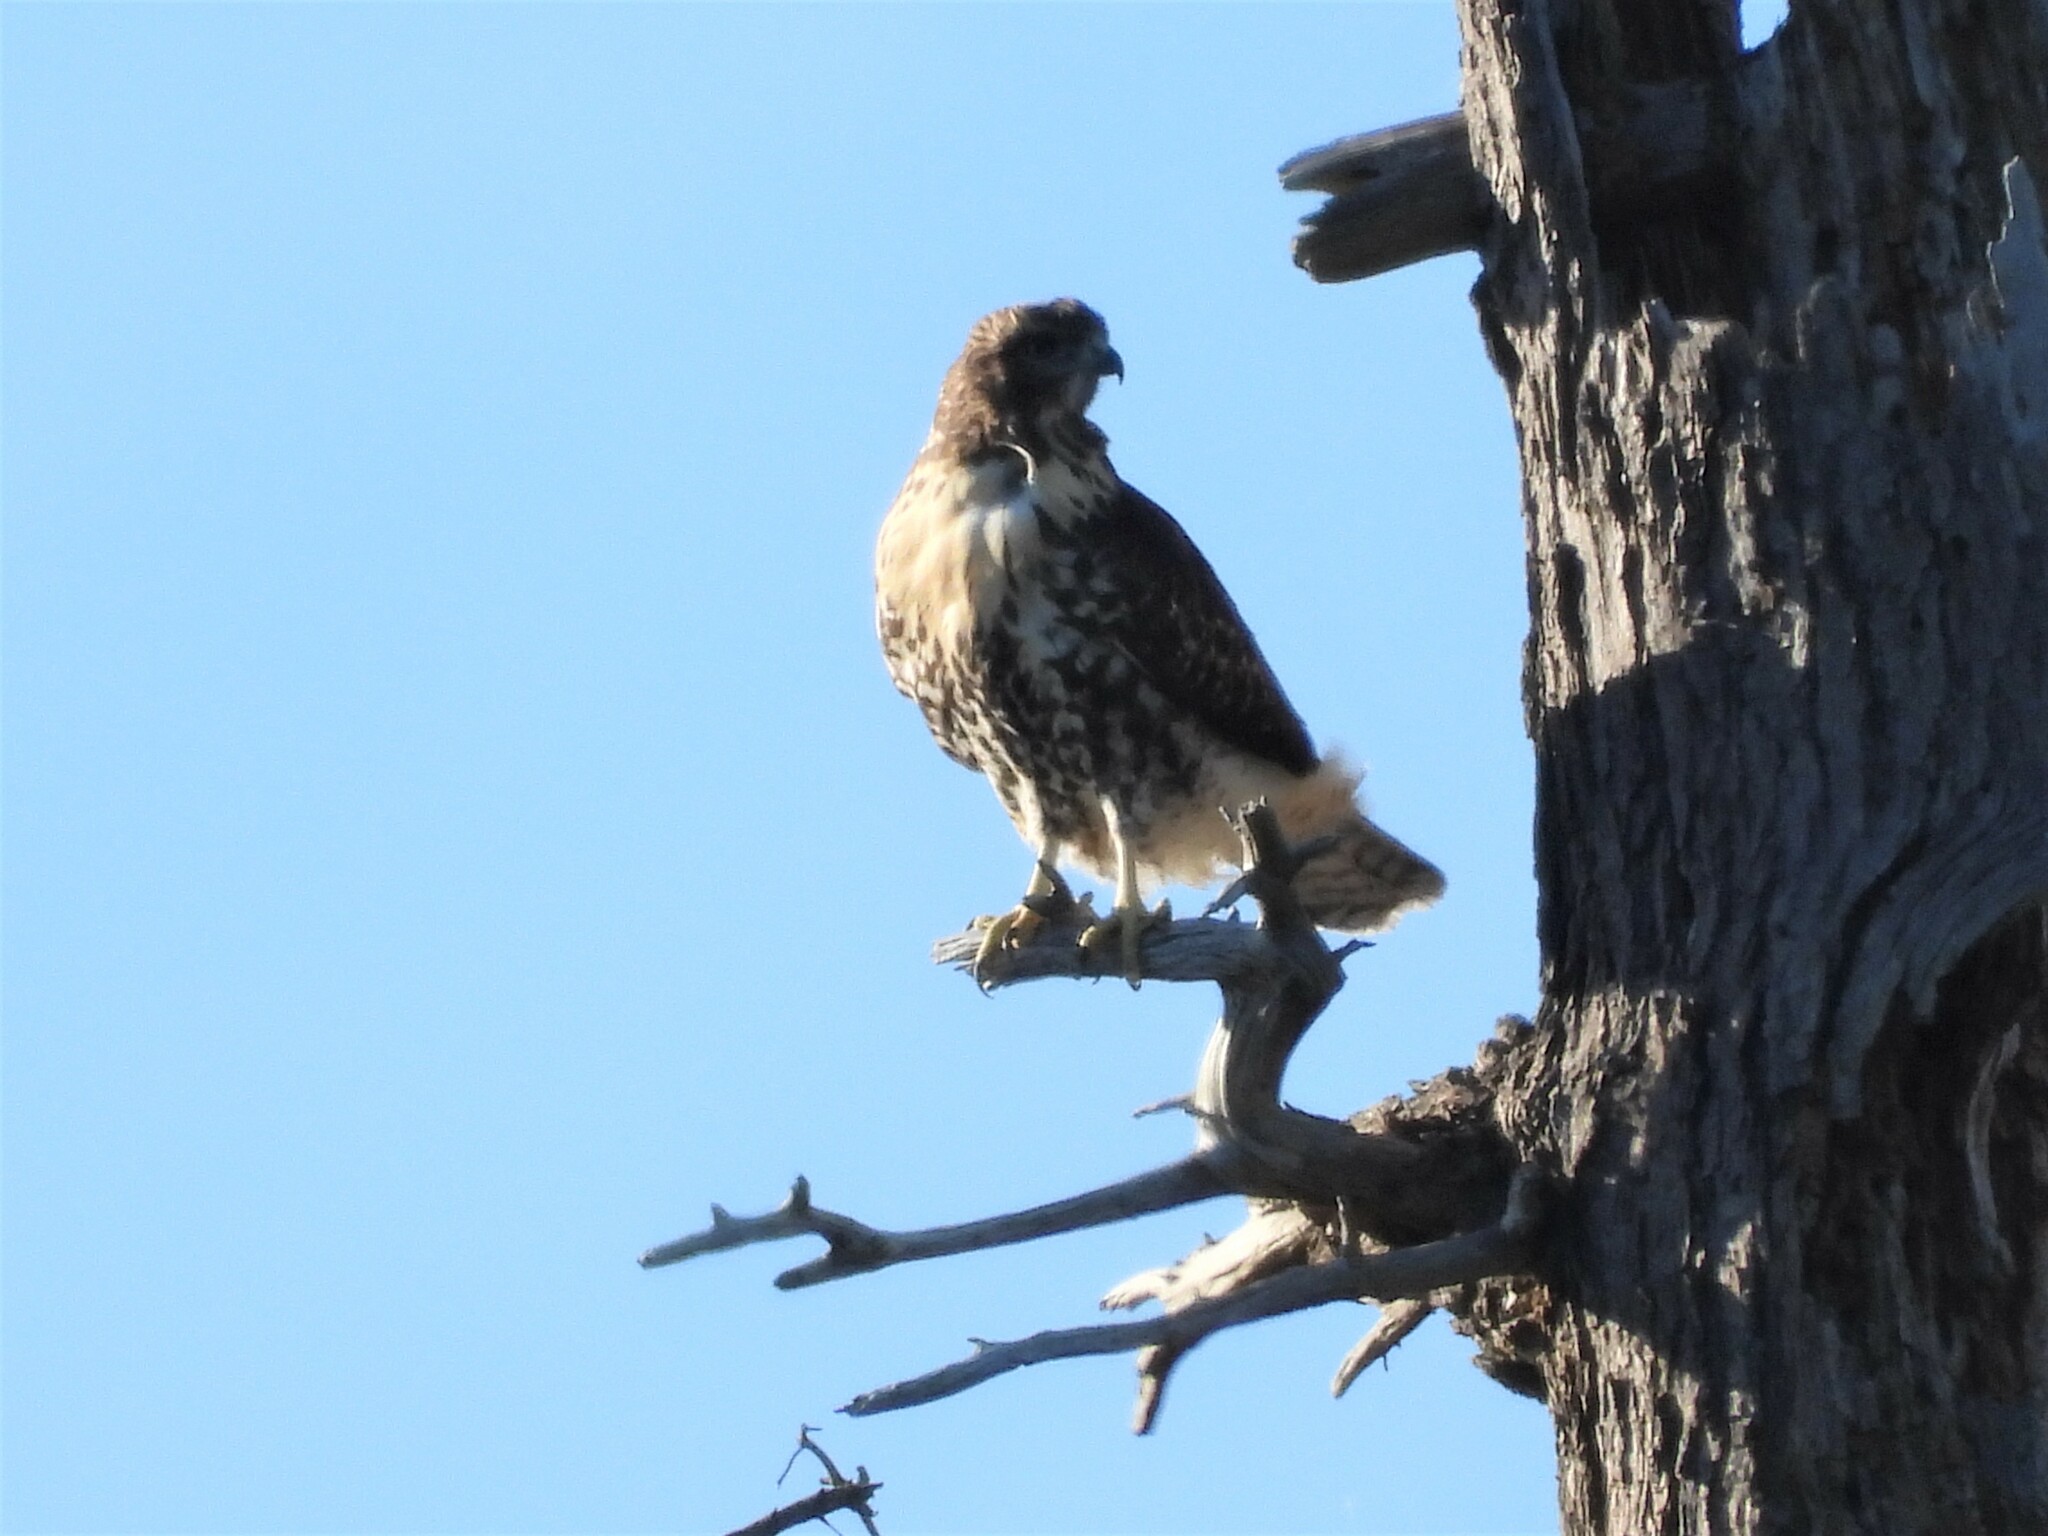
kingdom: Animalia
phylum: Chordata
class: Aves
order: Accipitriformes
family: Accipitridae
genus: Buteo
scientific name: Buteo jamaicensis
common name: Red-tailed hawk
